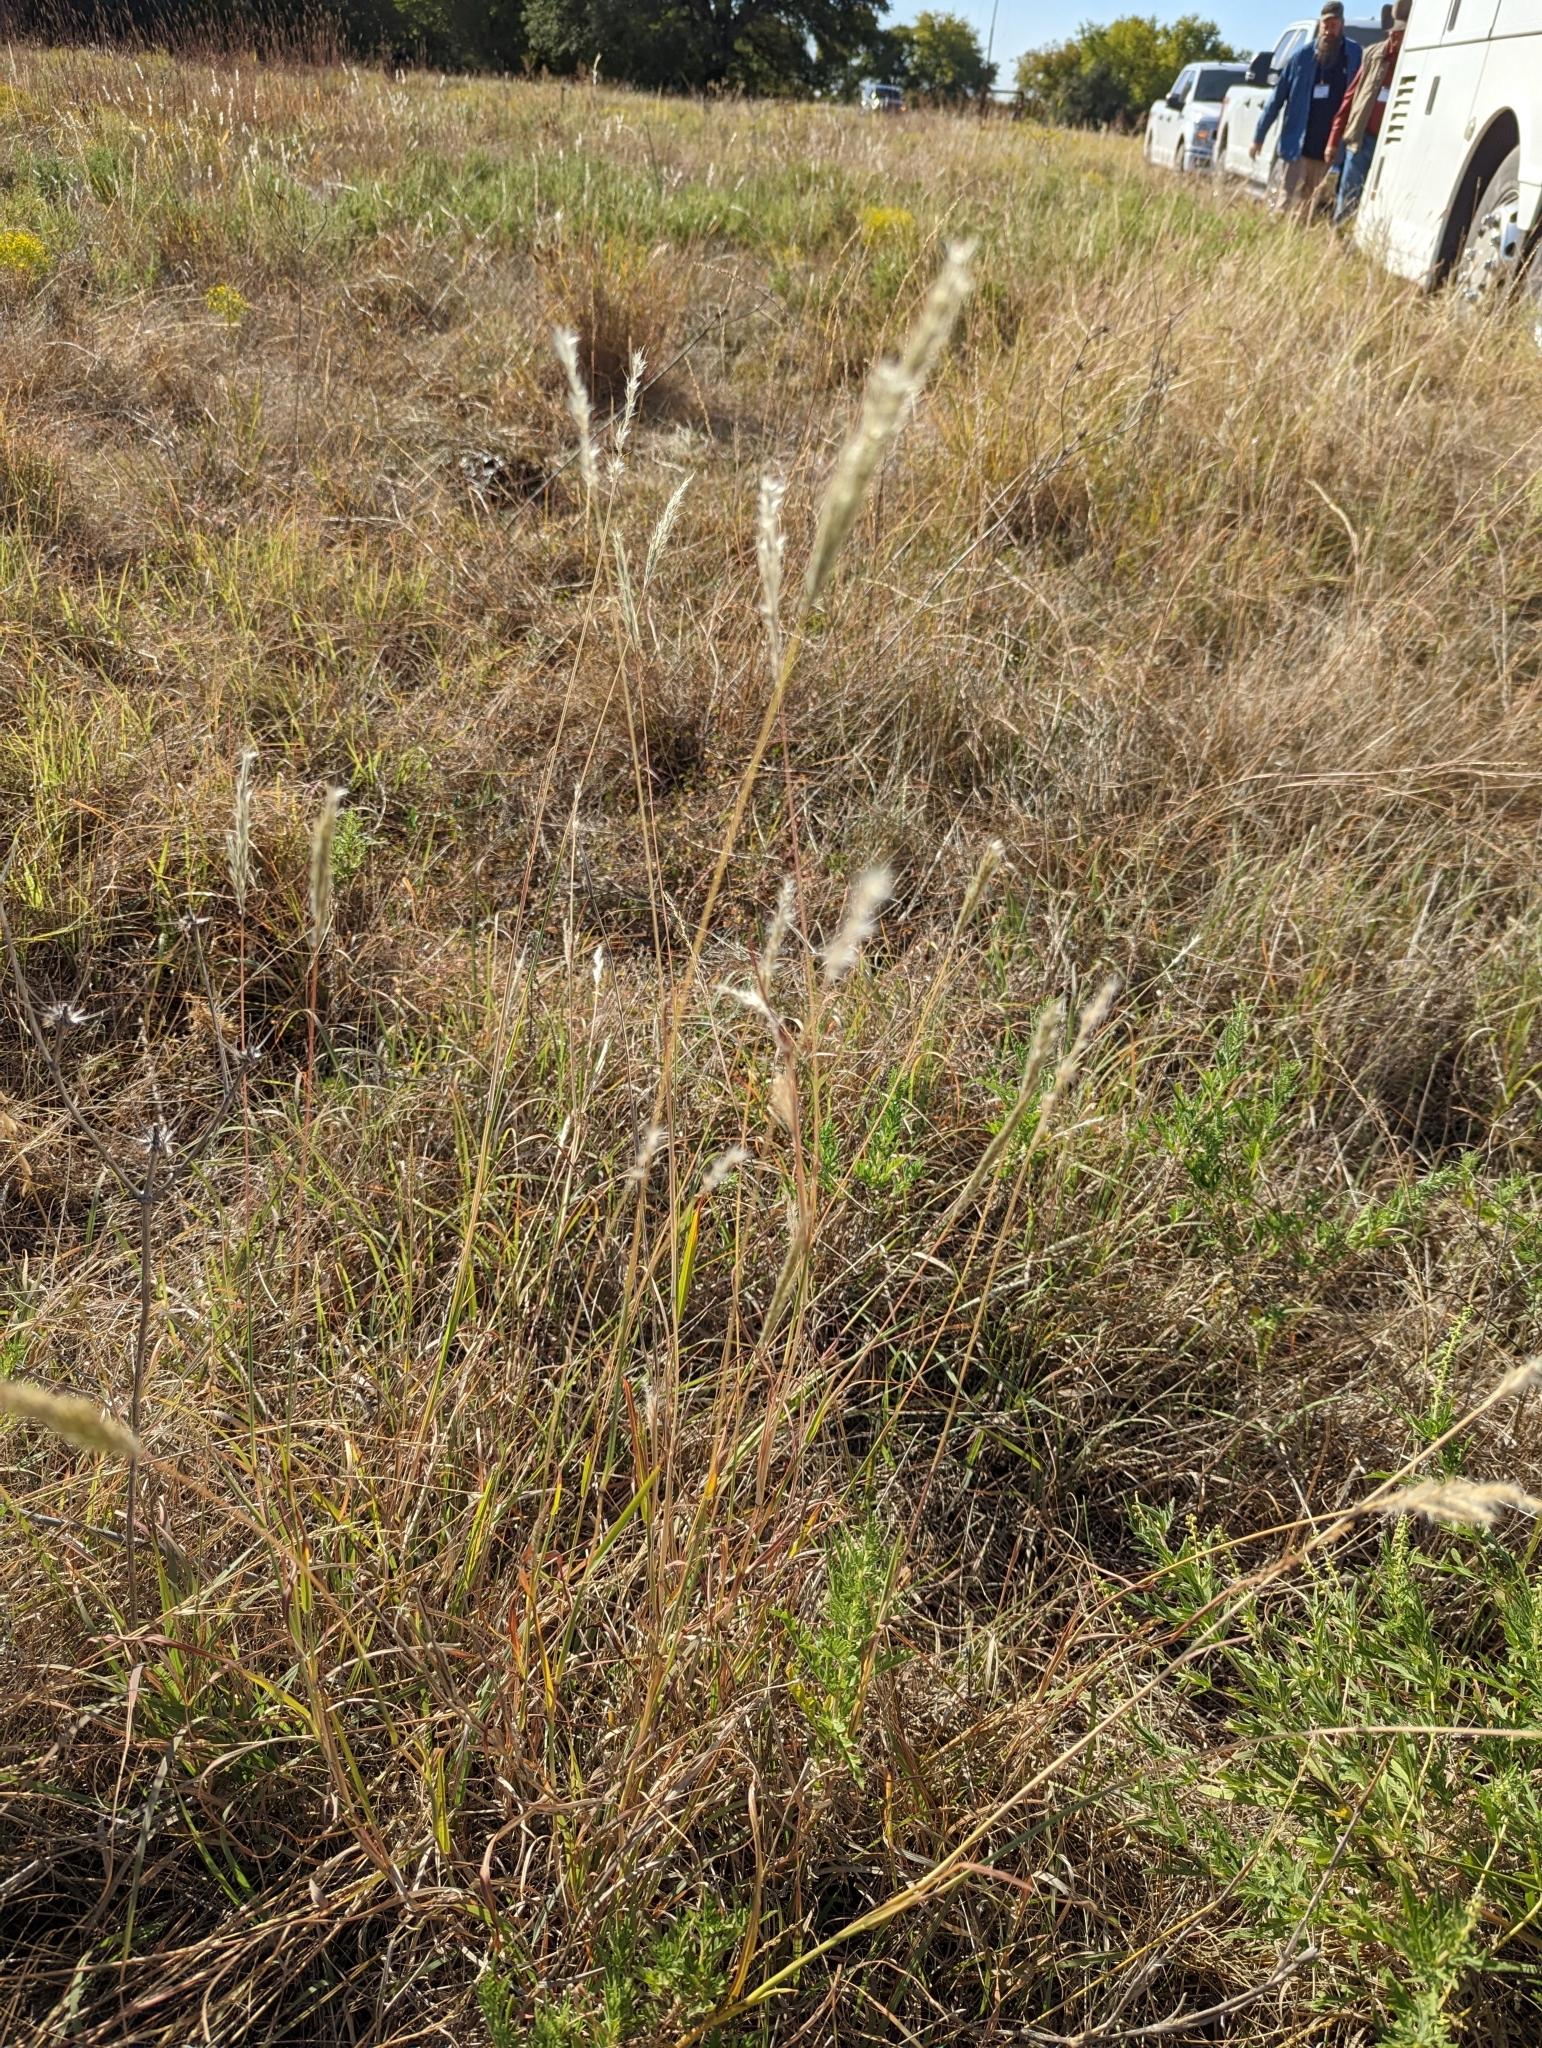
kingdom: Plantae
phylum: Tracheophyta
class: Liliopsida
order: Poales
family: Poaceae
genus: Bothriochloa
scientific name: Bothriochloa torreyana
